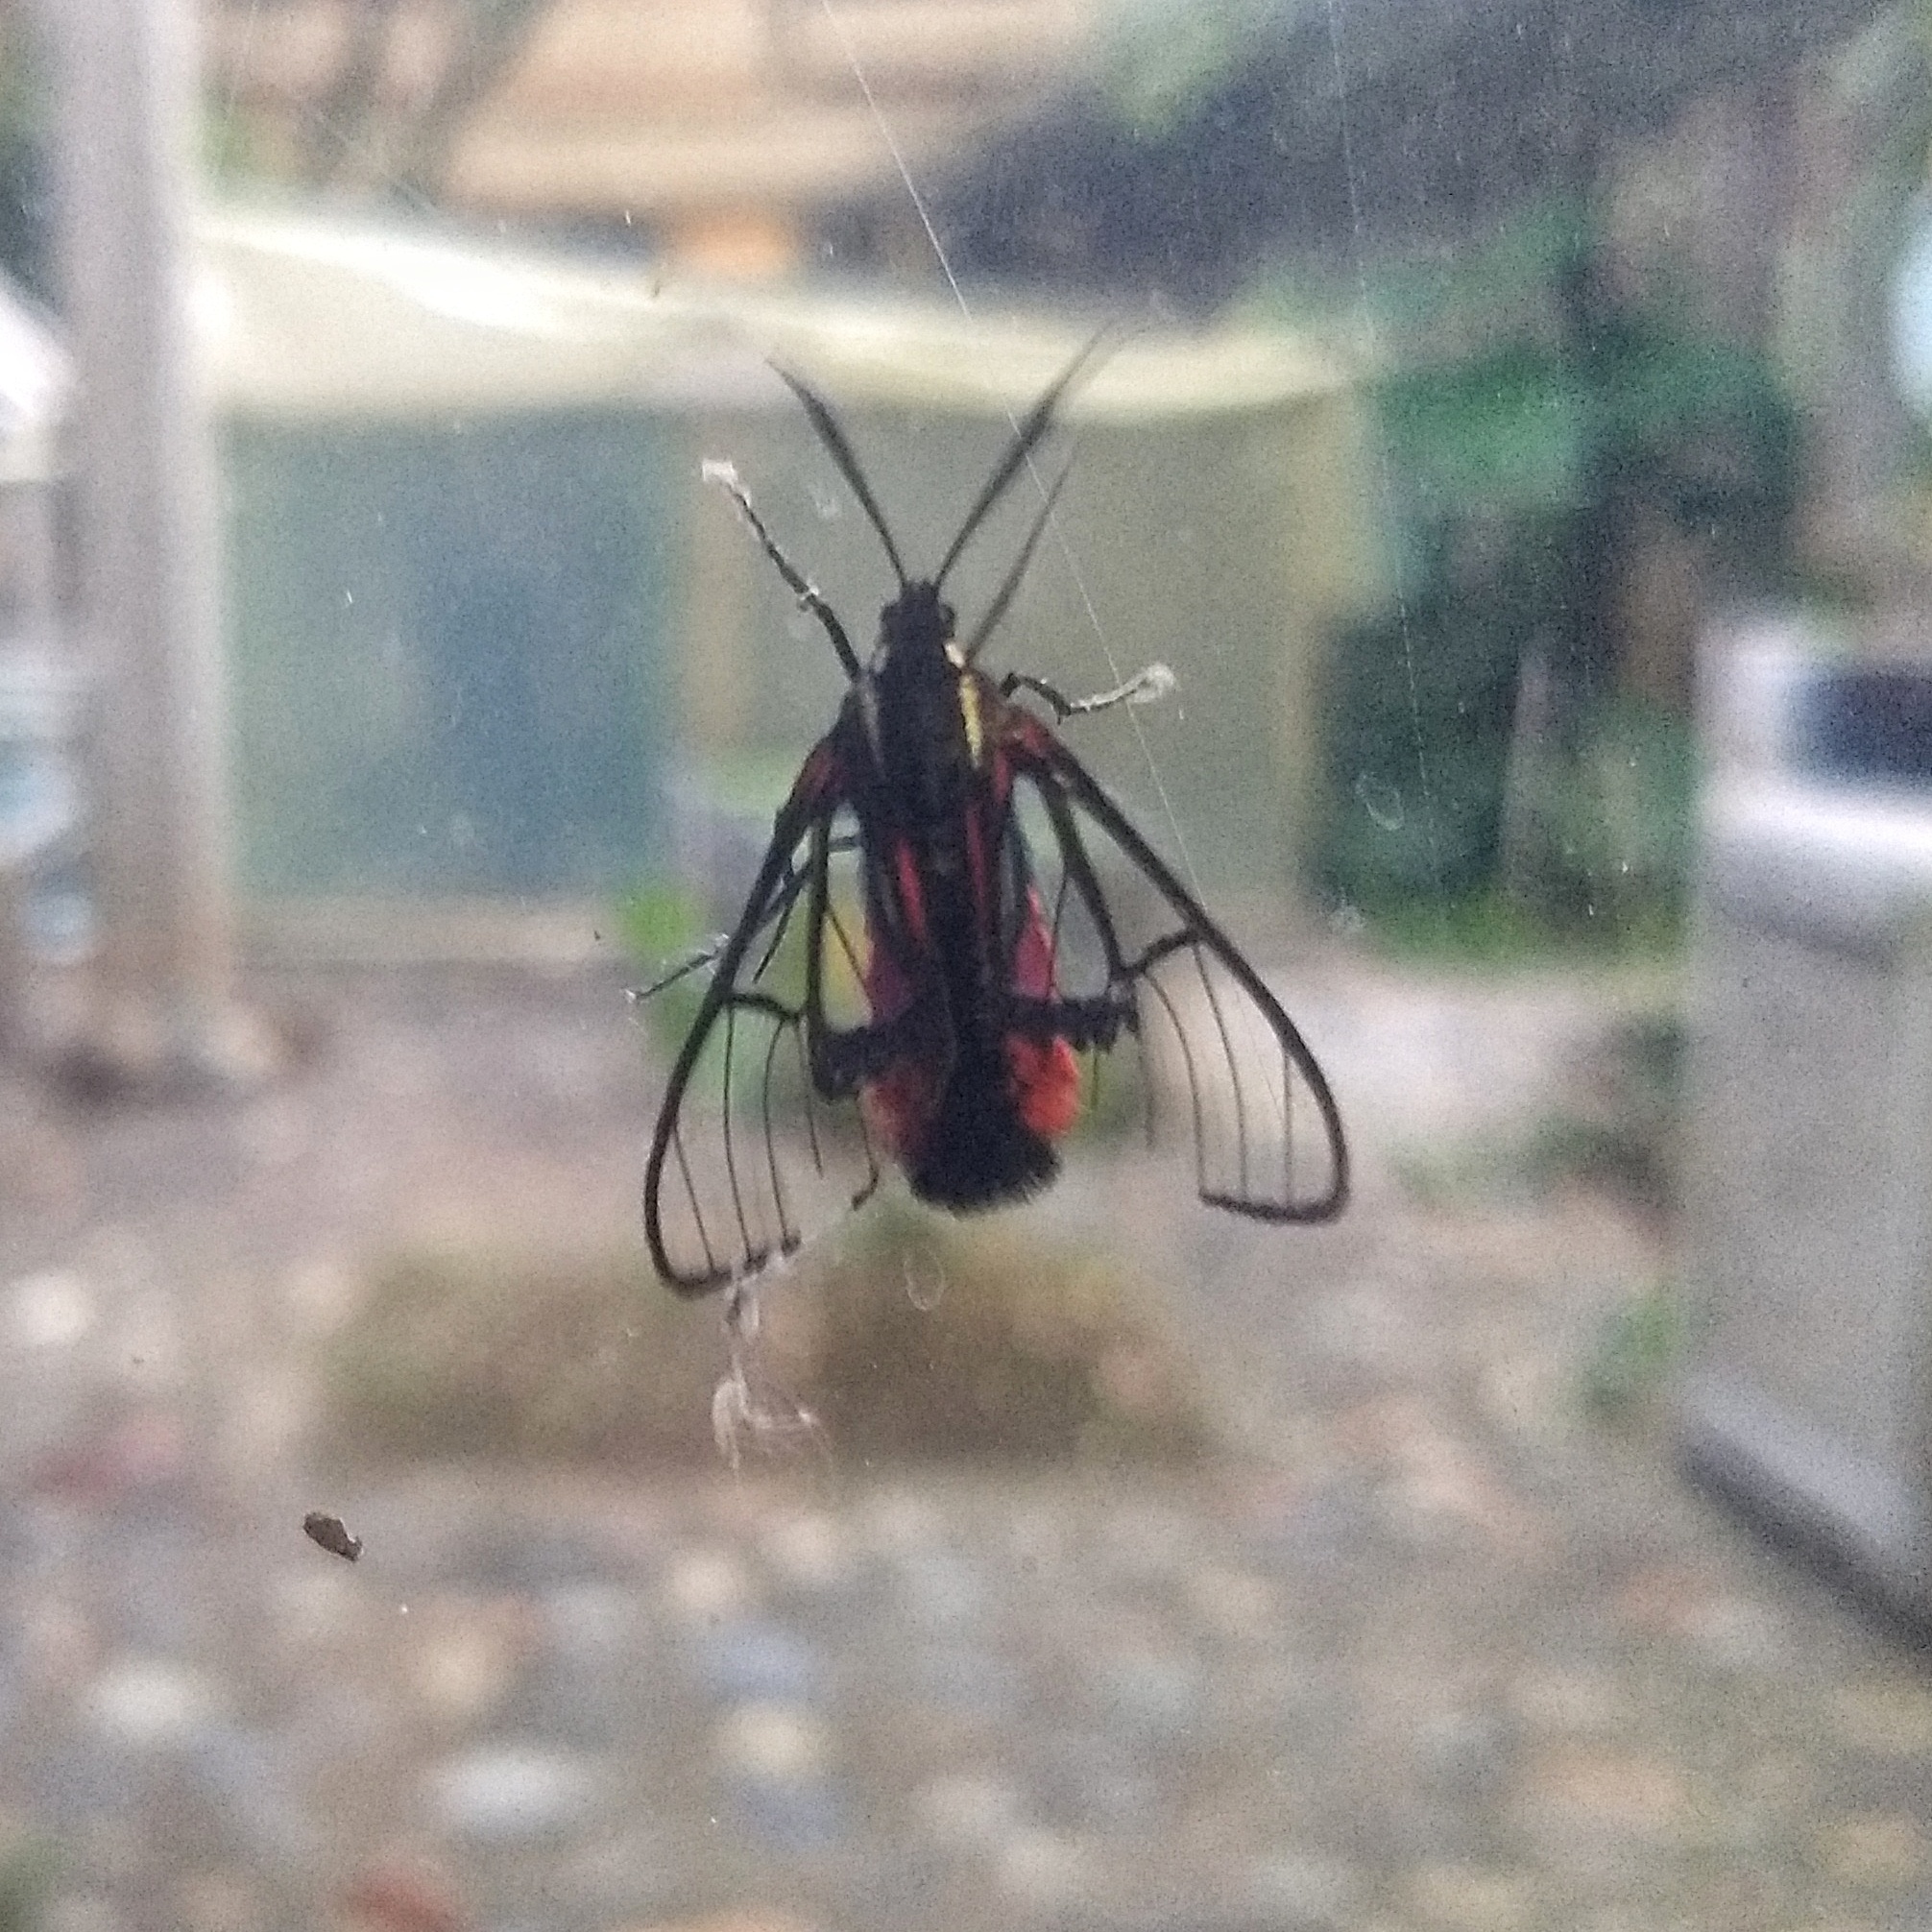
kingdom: Animalia
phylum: Arthropoda
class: Insecta
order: Lepidoptera
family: Erebidae
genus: Dinia
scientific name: Dinia mena
